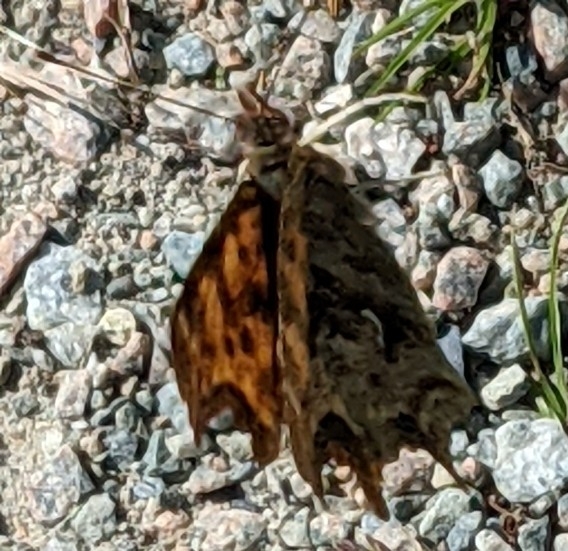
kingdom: Animalia
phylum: Arthropoda
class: Insecta
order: Lepidoptera
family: Nymphalidae
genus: Polygonia
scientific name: Polygonia satyrus
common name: Satyr angle wing
